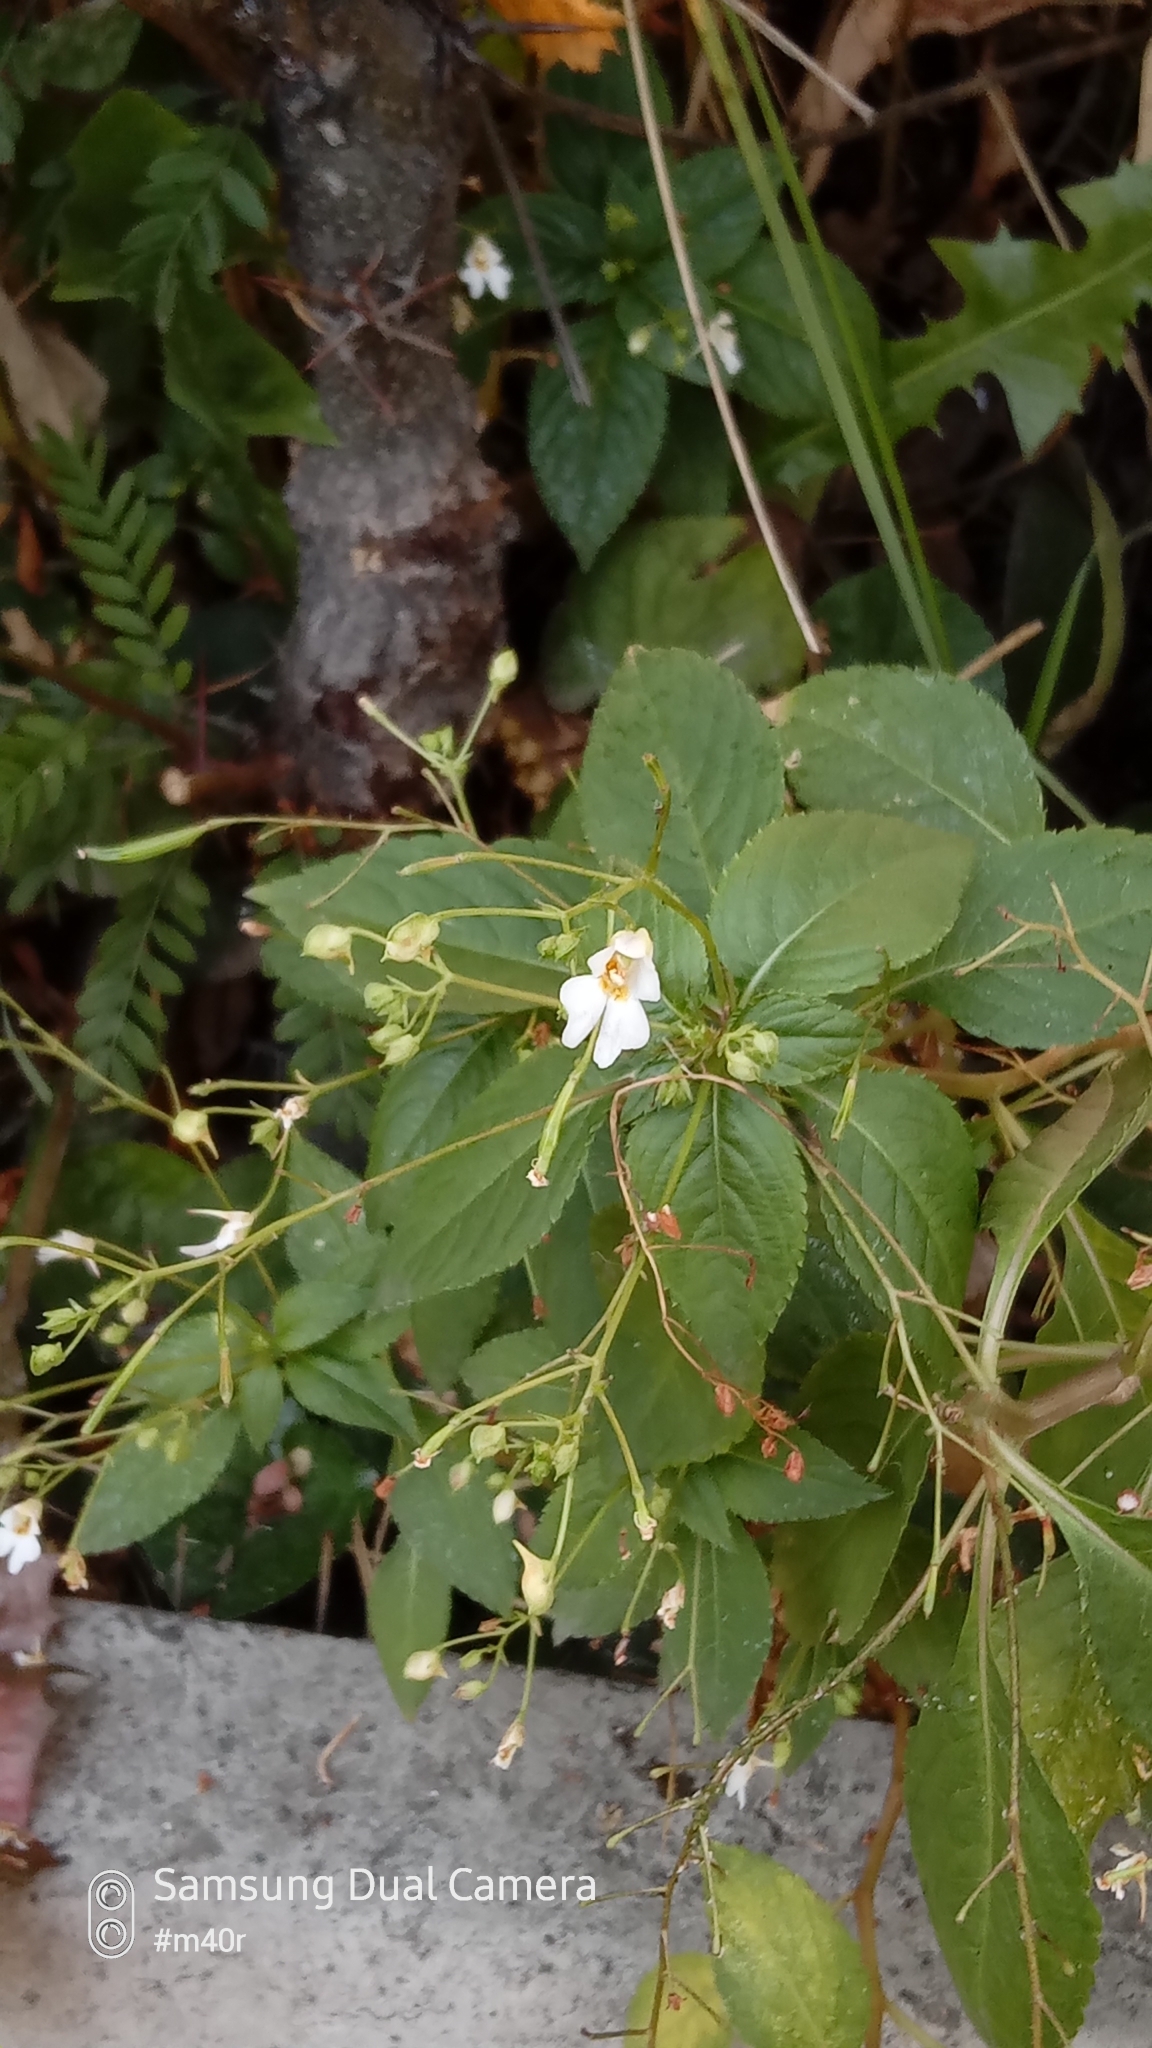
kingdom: Plantae
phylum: Tracheophyta
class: Magnoliopsida
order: Ericales
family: Balsaminaceae
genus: Impatiens
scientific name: Impatiens parviflora
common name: Small balsam
